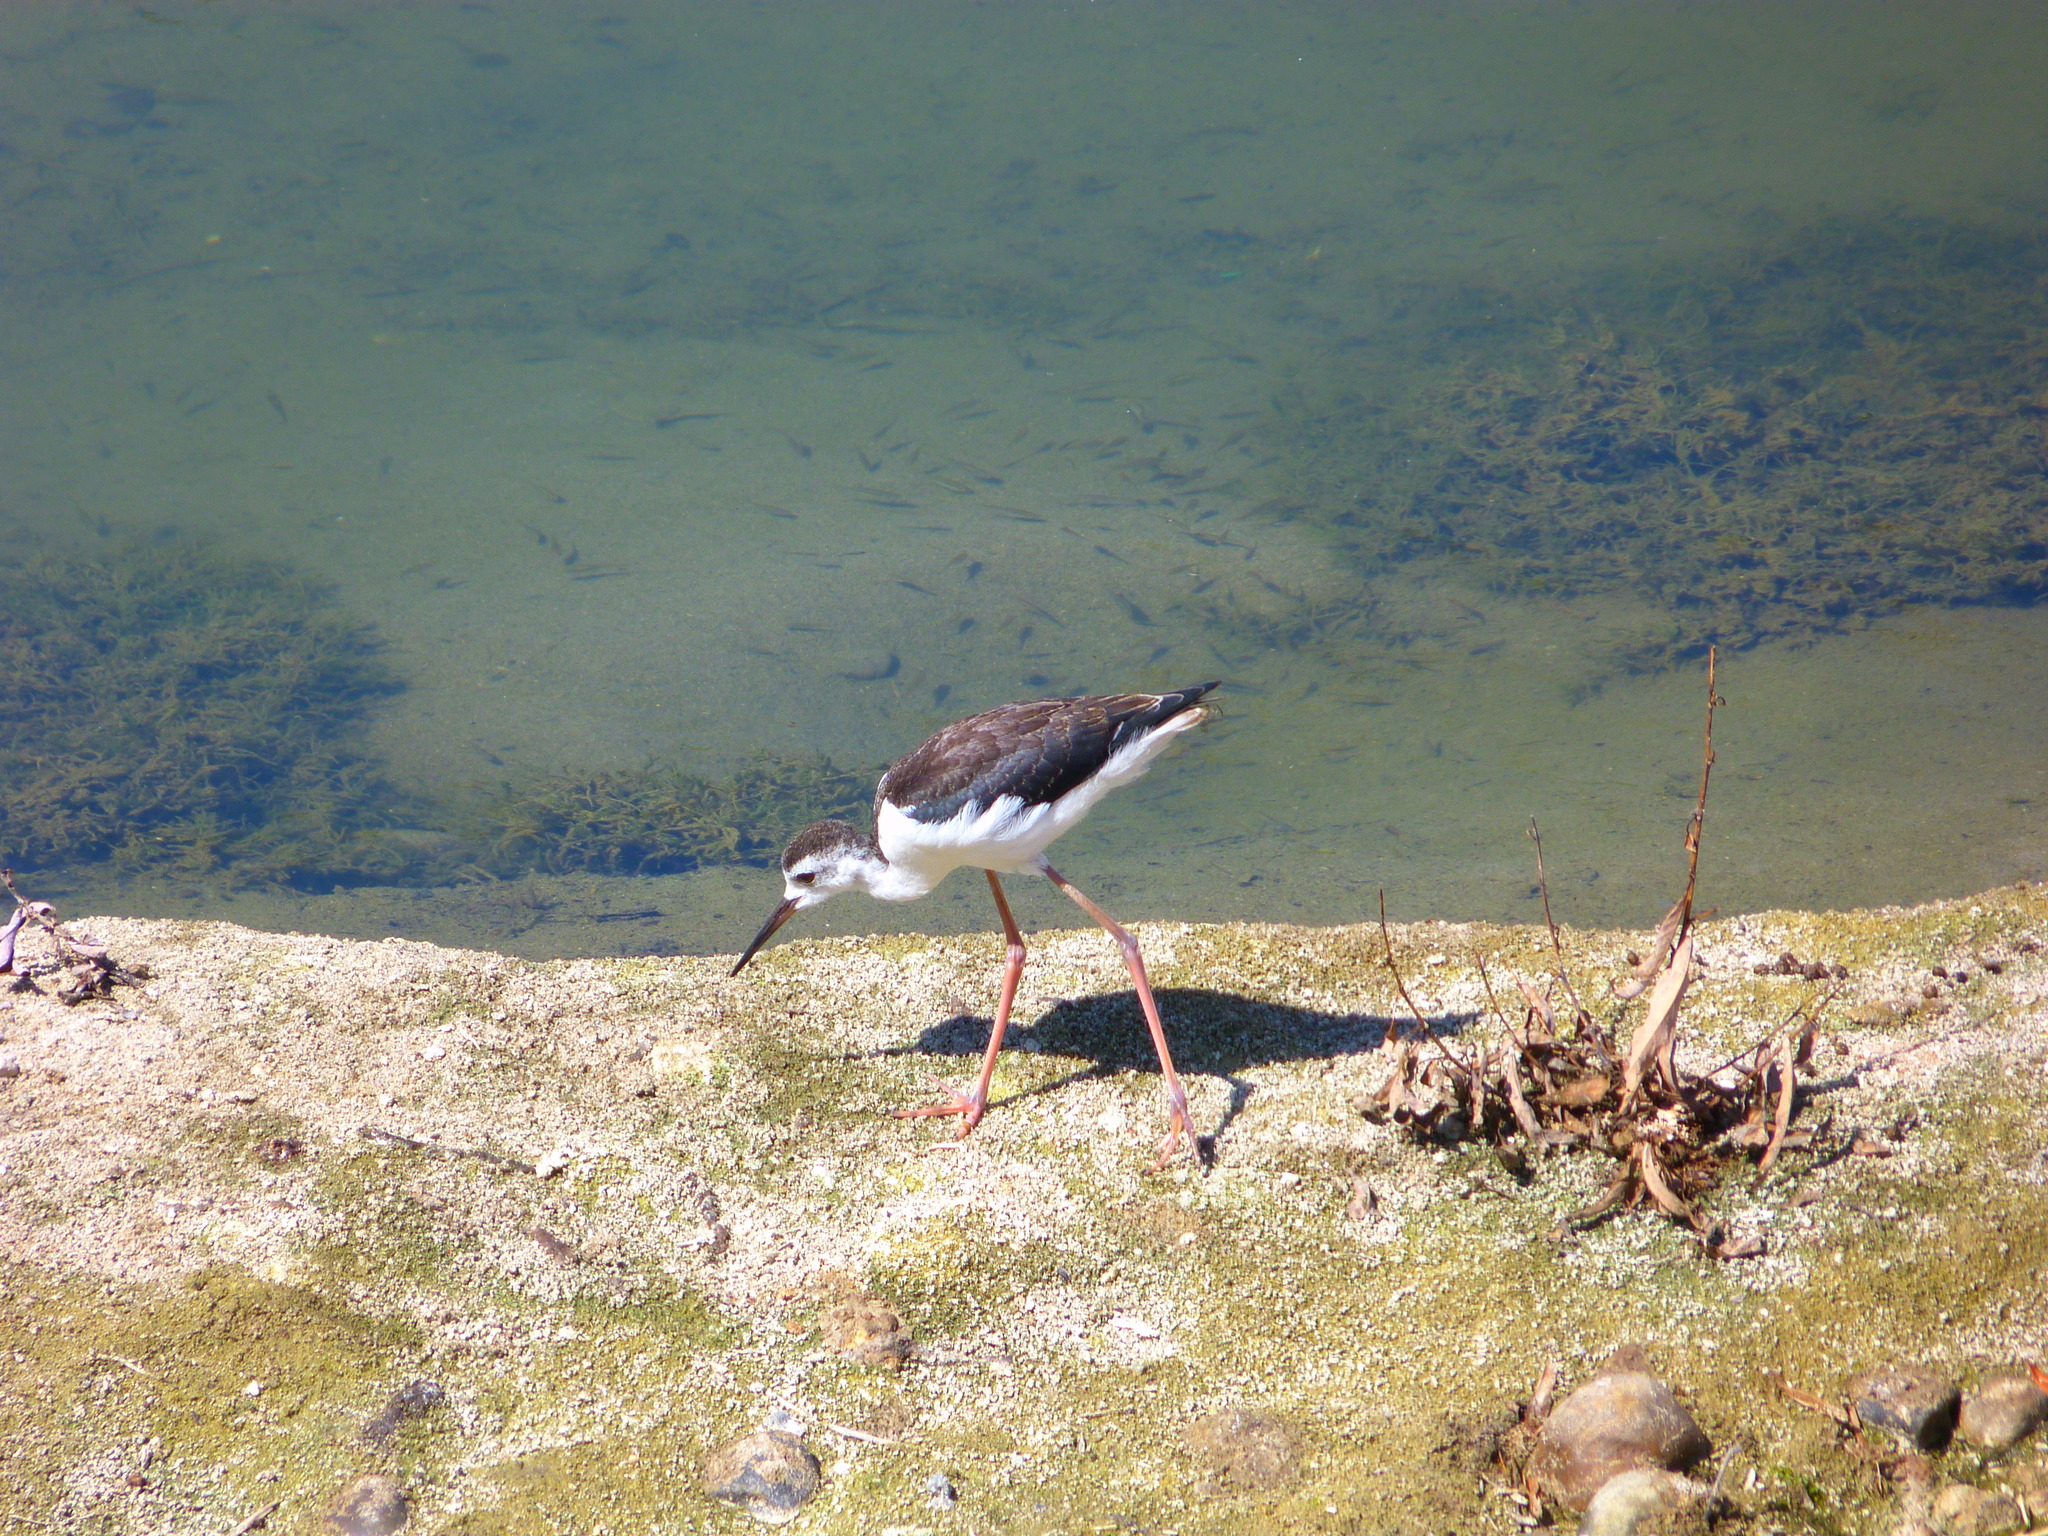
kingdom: Animalia
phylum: Chordata
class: Aves
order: Charadriiformes
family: Recurvirostridae
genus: Himantopus
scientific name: Himantopus mexicanus
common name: Black-necked stilt
